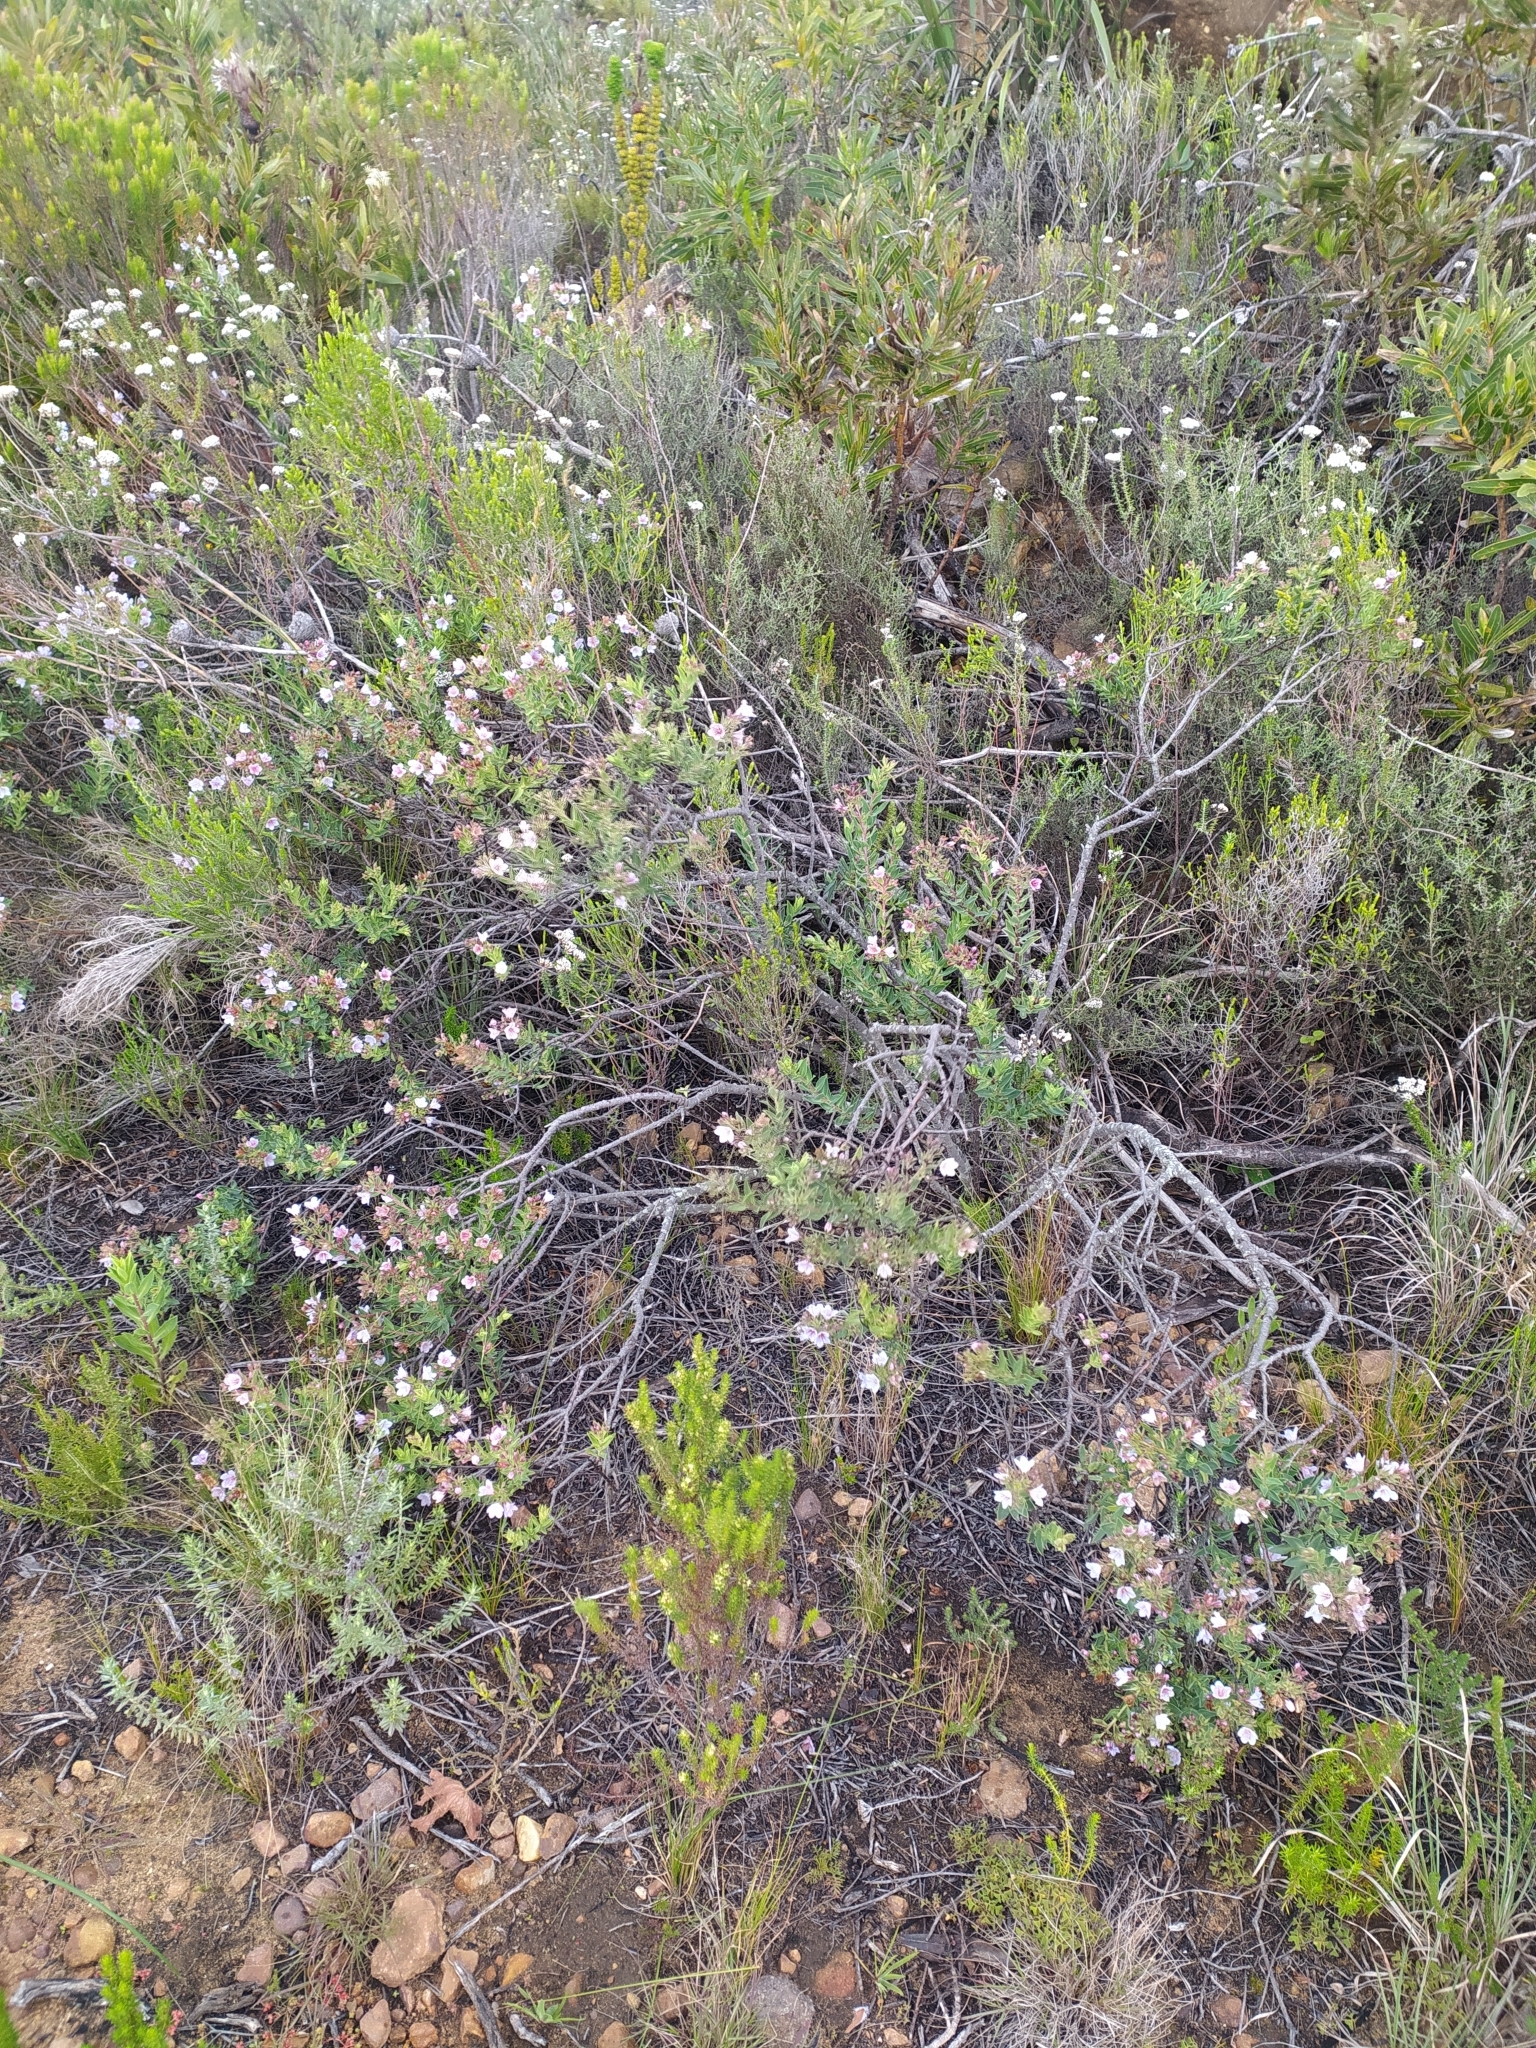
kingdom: Plantae
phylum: Tracheophyta
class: Magnoliopsida
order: Boraginales
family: Boraginaceae
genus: Lobostemon
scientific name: Lobostemon glaucophyllus
